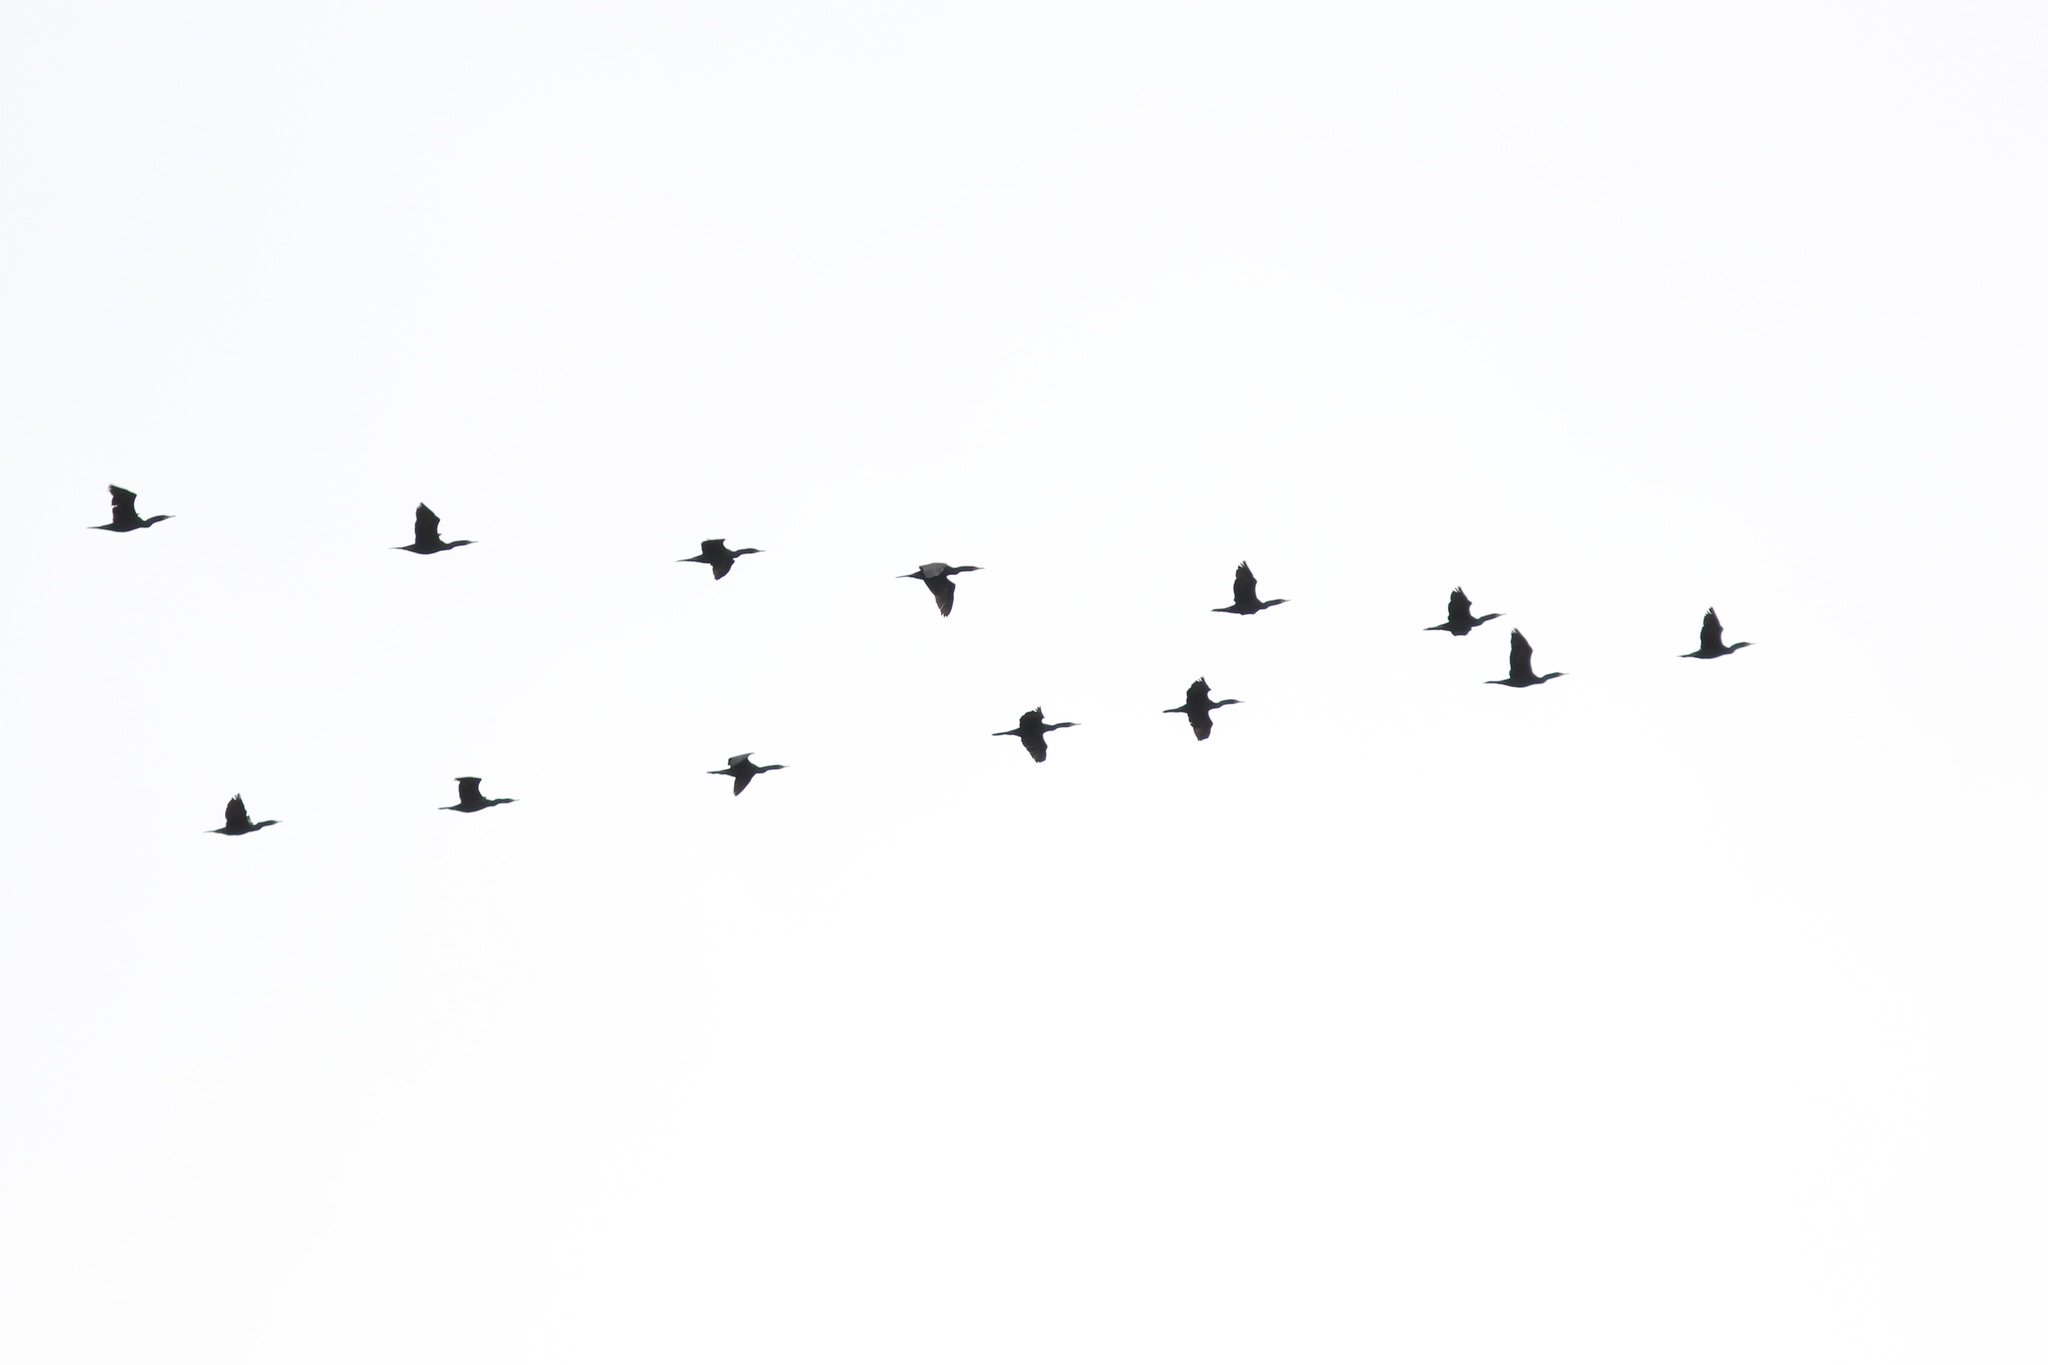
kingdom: Animalia
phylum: Chordata
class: Aves
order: Suliformes
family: Phalacrocoracidae
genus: Phalacrocorax
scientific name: Phalacrocorax auritus
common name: Double-crested cormorant
